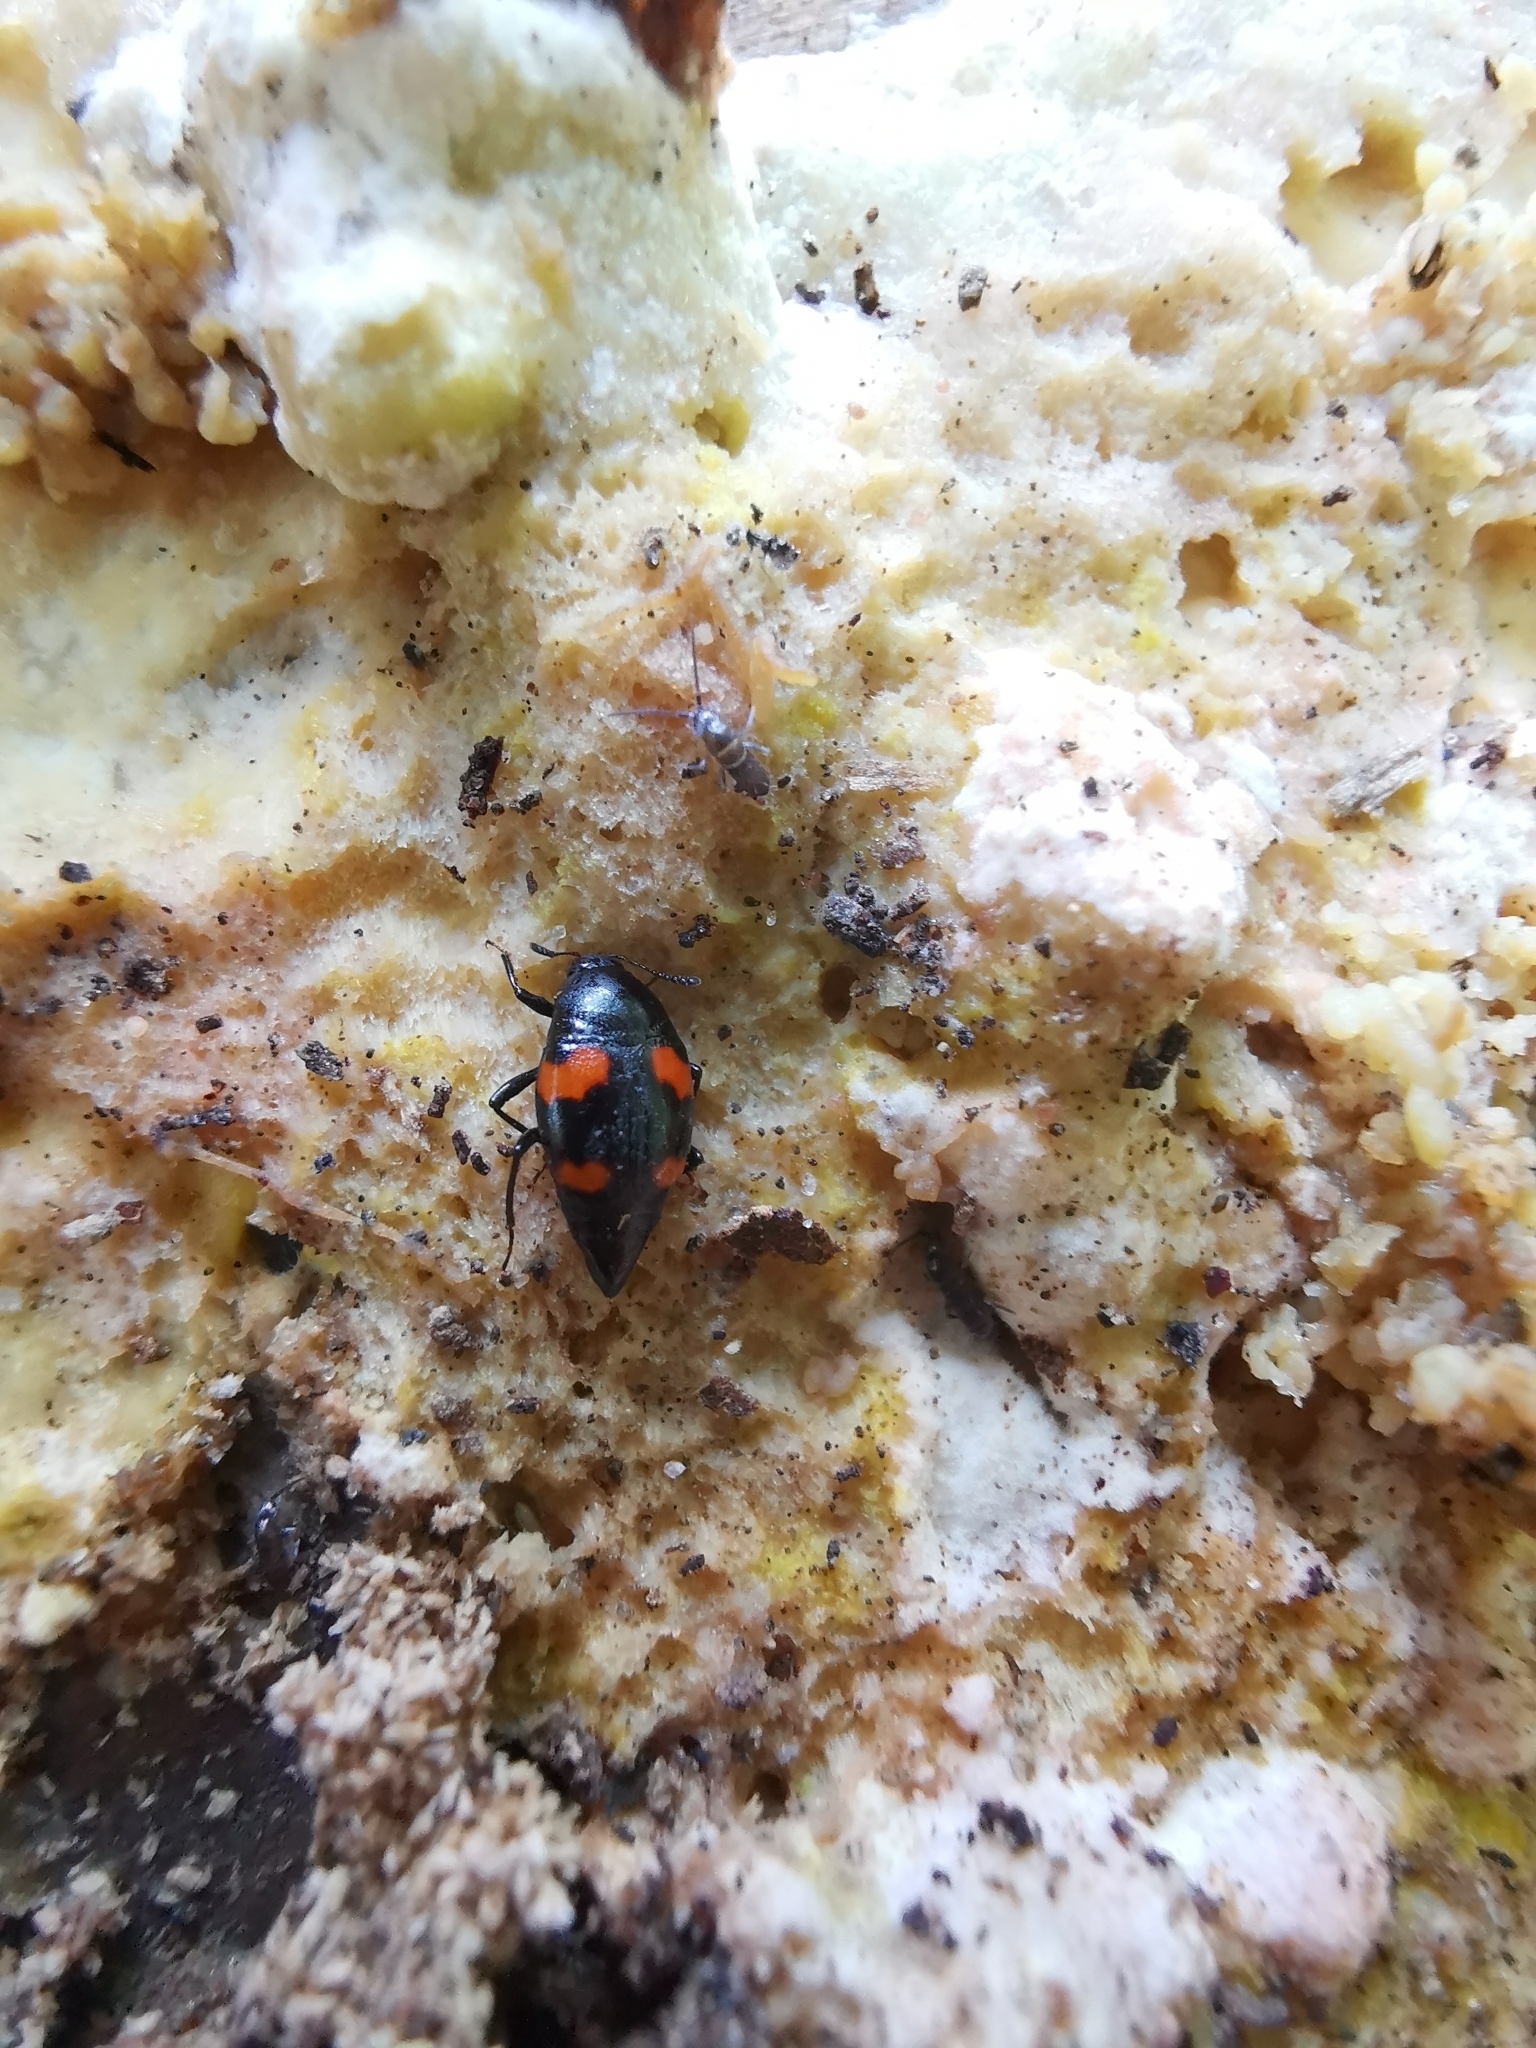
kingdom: Animalia
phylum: Arthropoda
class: Insecta
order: Coleoptera
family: Staphylinidae
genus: Scaphidium
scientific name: Scaphidium quadrimaculatum
